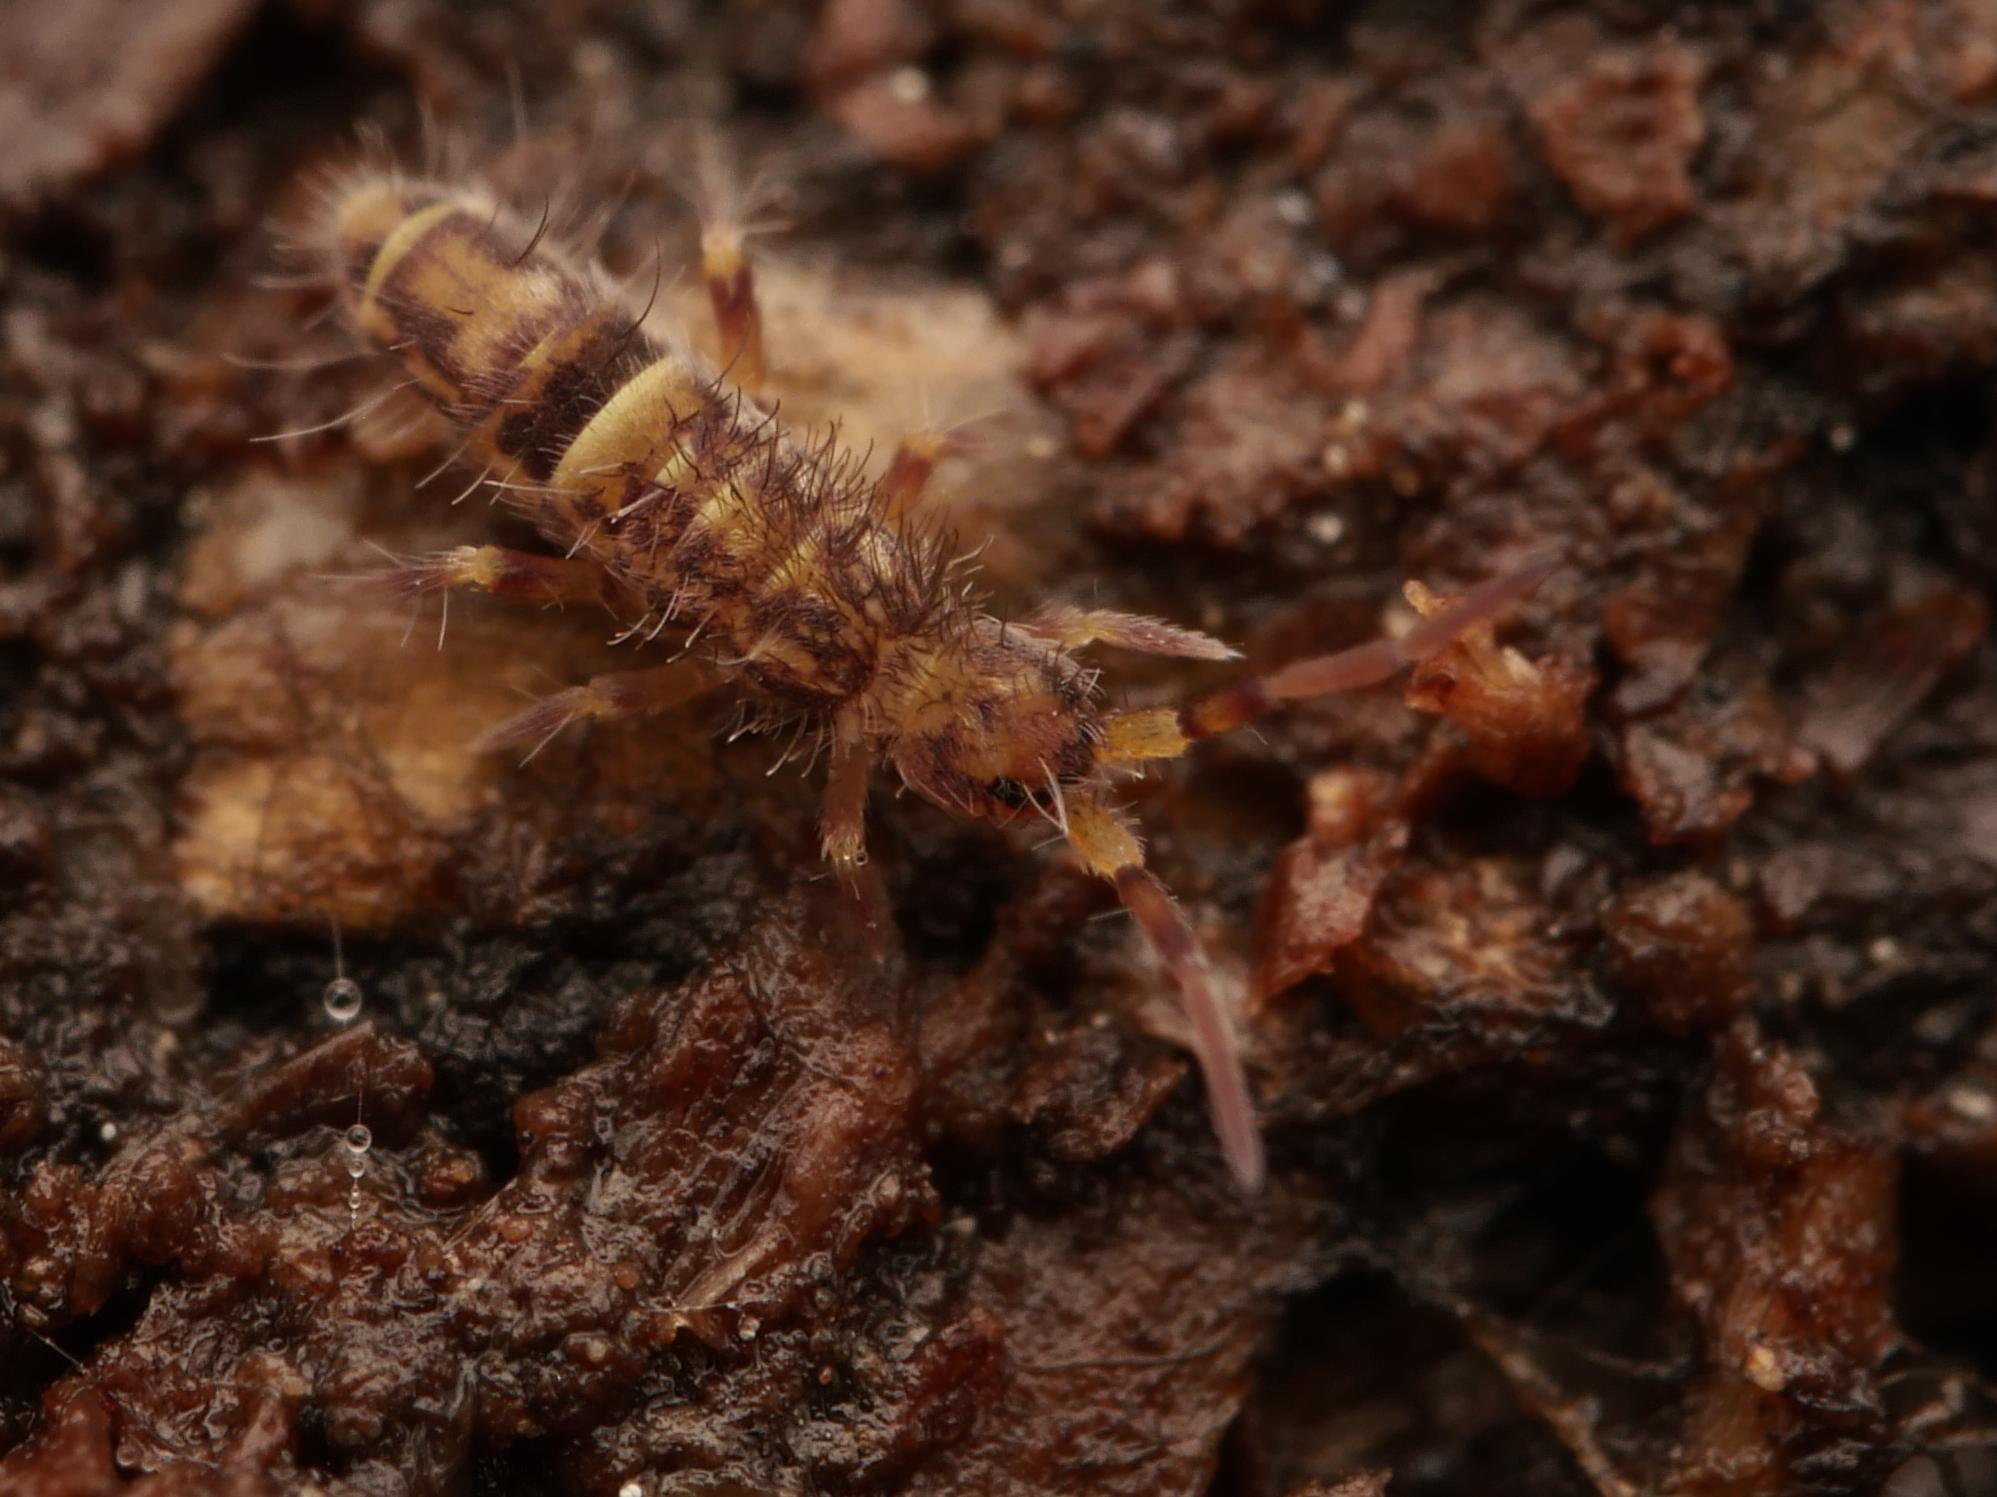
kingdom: Animalia
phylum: Arthropoda
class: Collembola
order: Entomobryomorpha
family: Orchesellidae
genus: Orchesella
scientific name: Orchesella cincta
